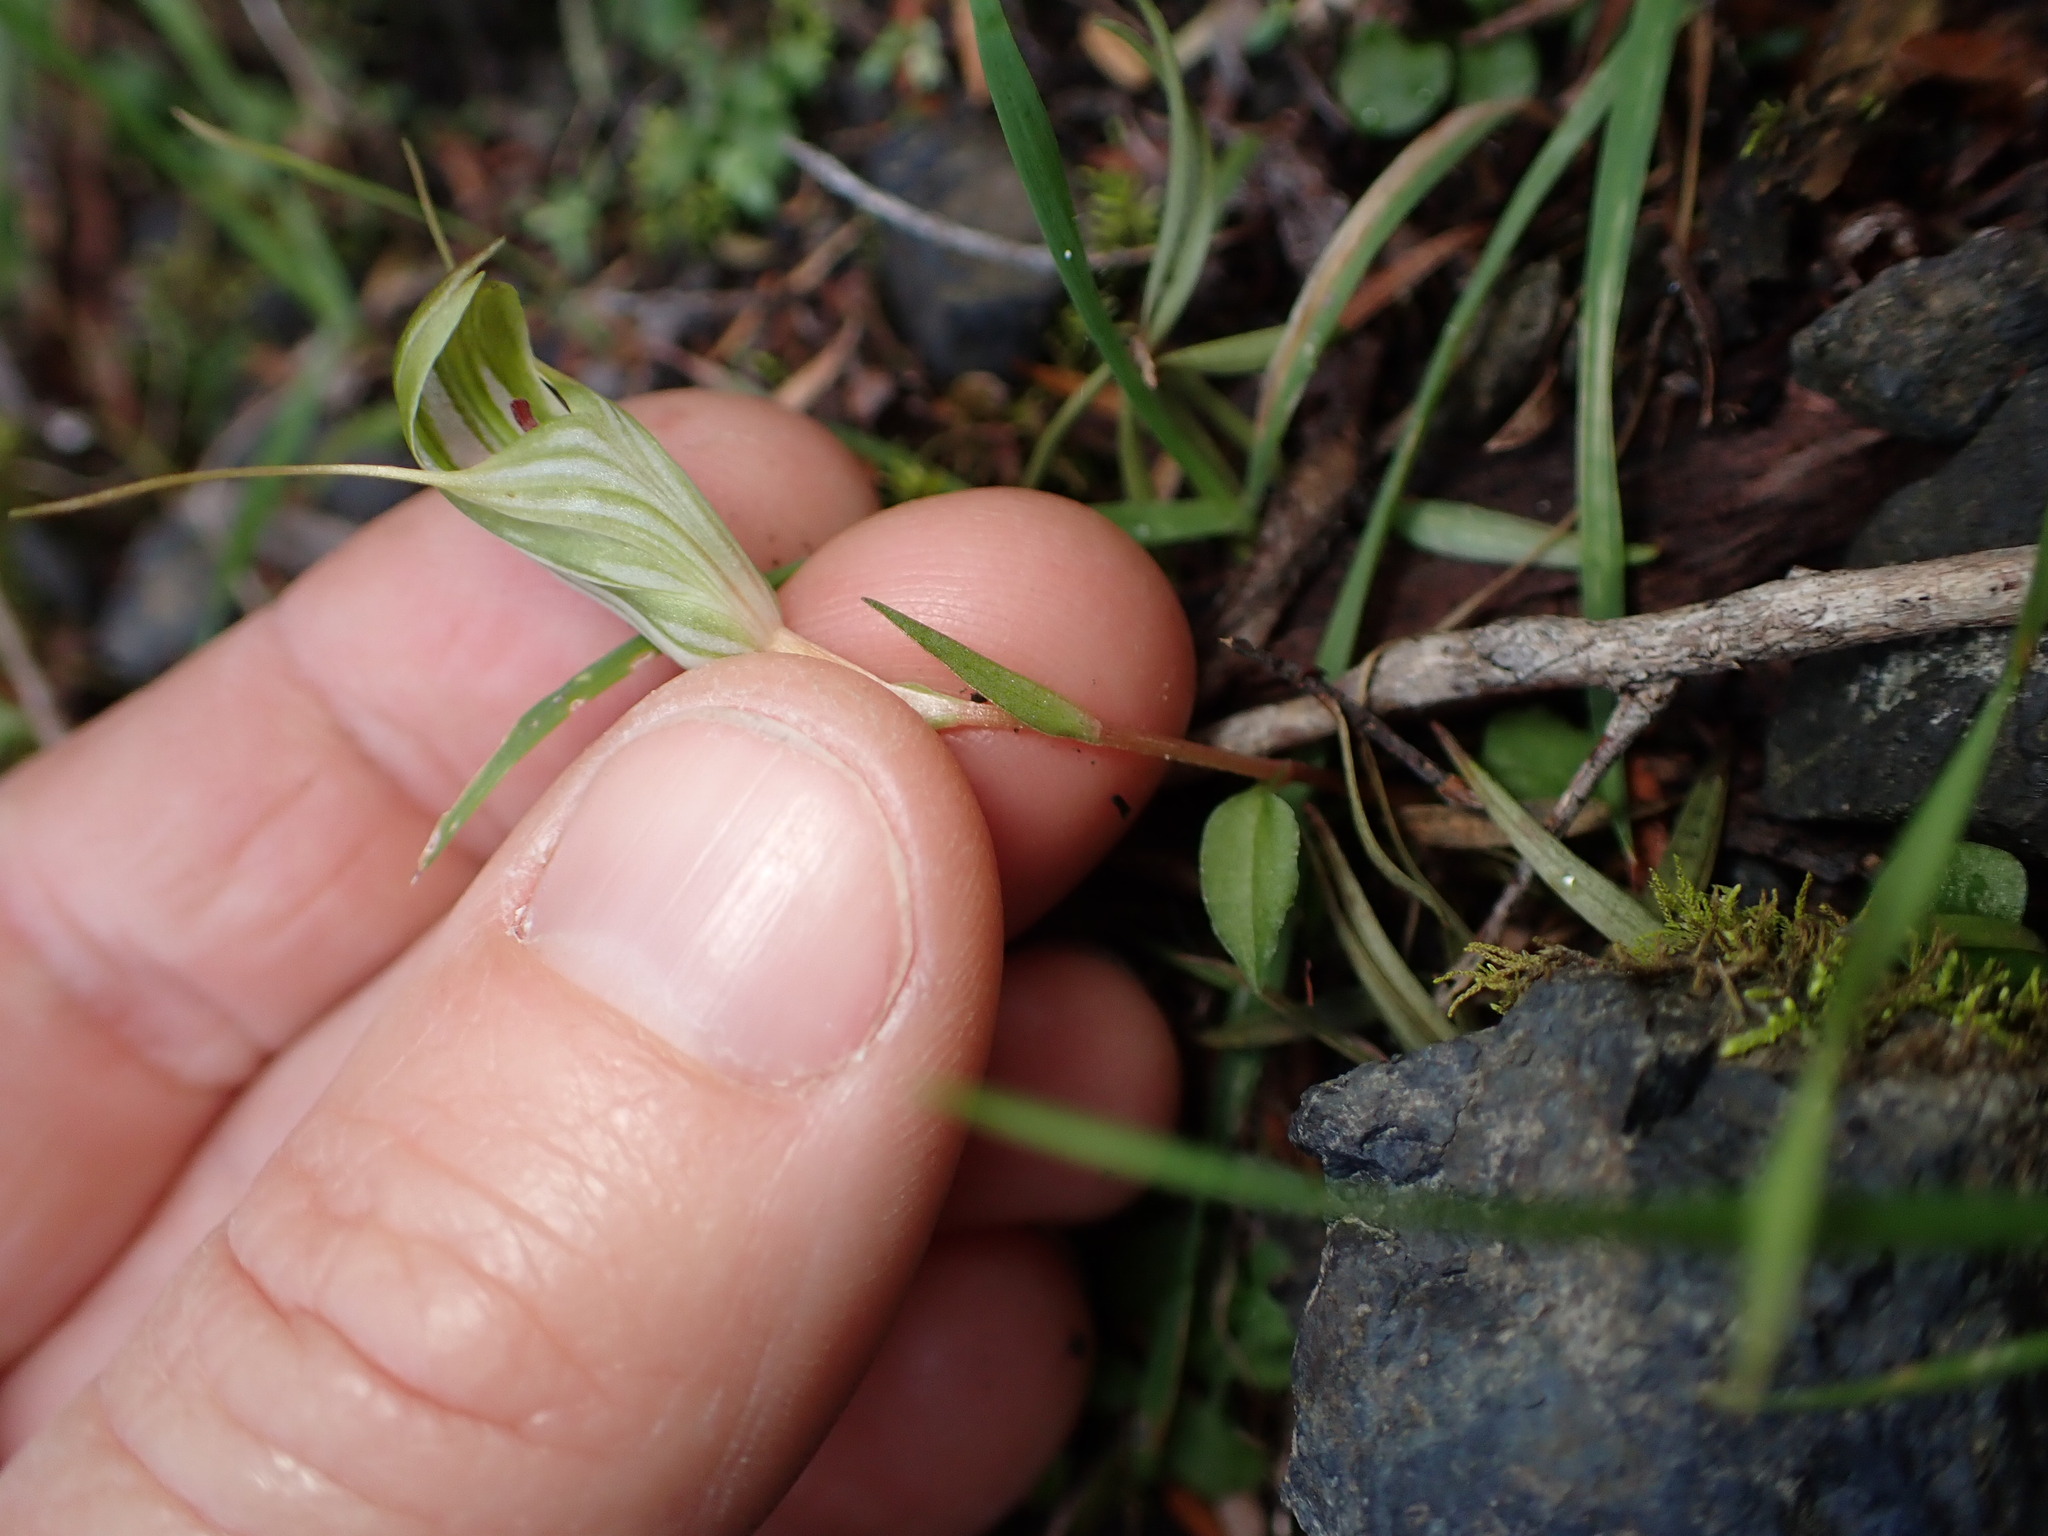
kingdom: Plantae
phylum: Tracheophyta
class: Liliopsida
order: Asparagales
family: Orchidaceae
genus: Pterostylis
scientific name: Pterostylis alobula
